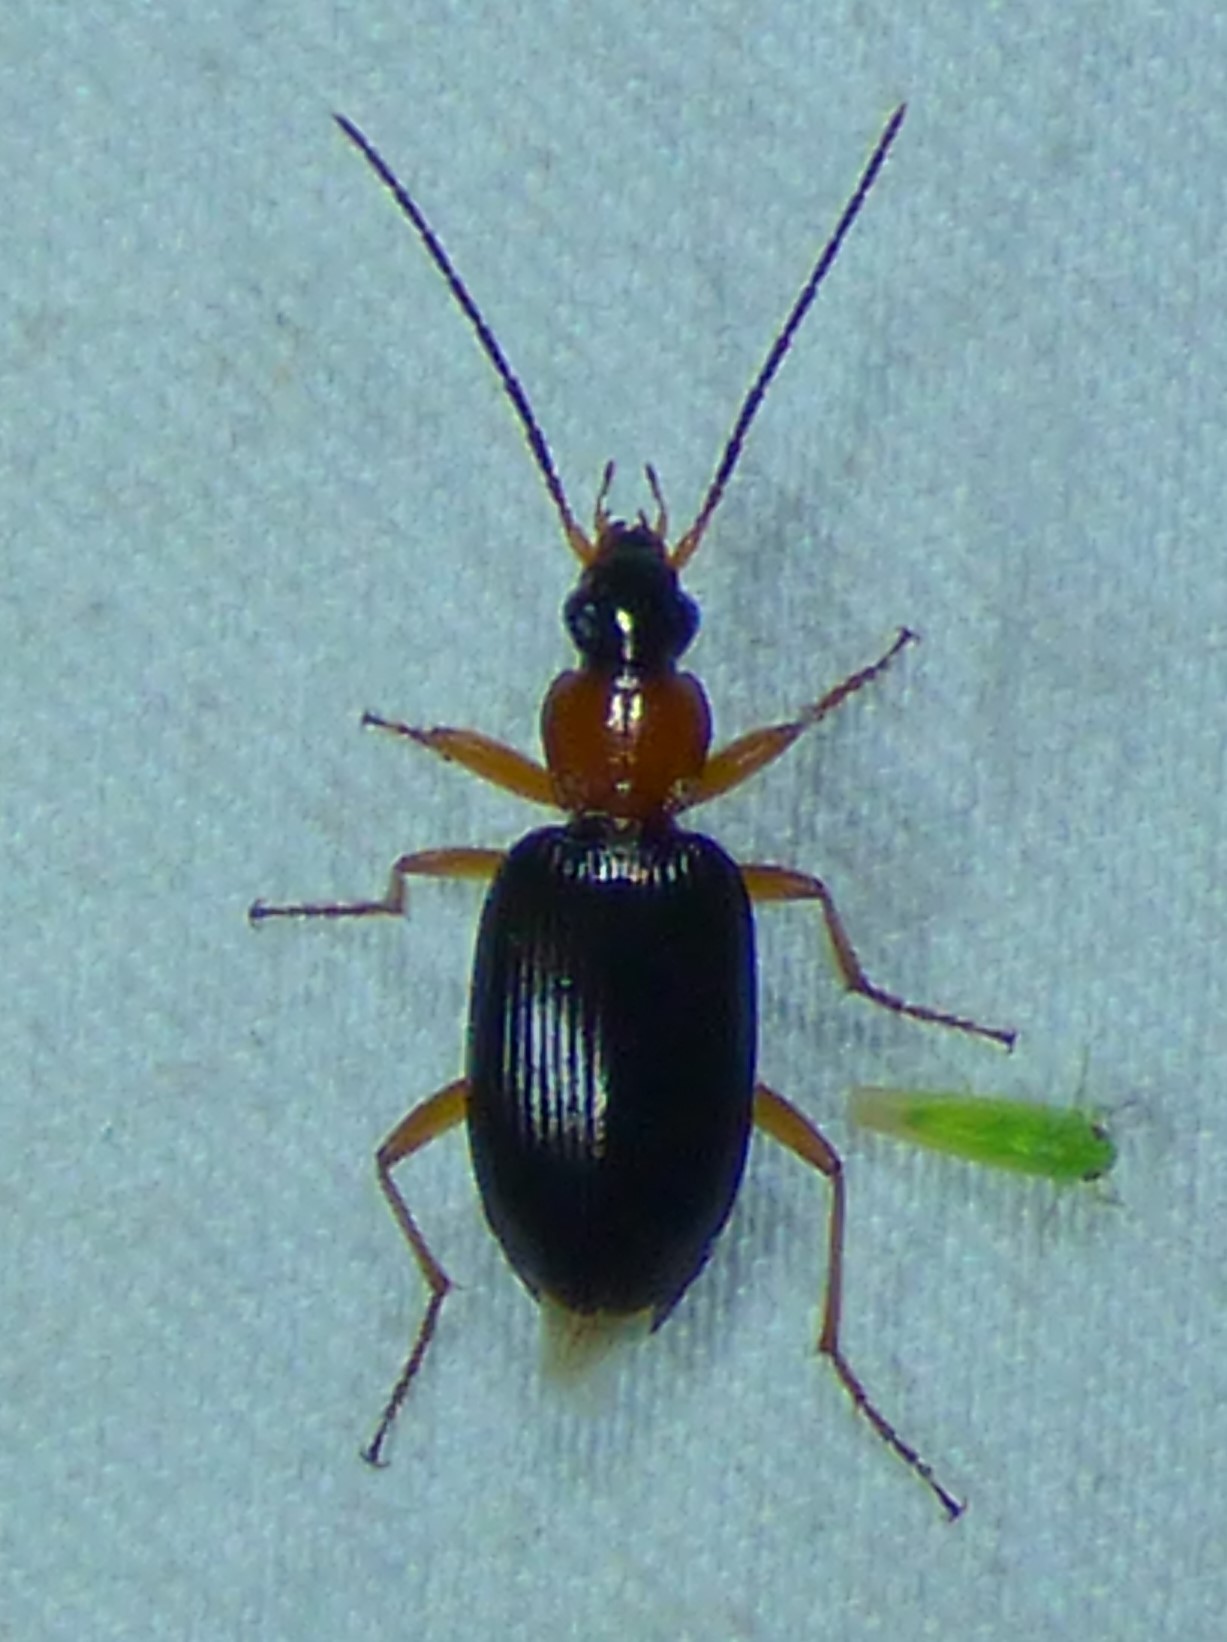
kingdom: Animalia
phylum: Arthropoda
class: Insecta
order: Coleoptera
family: Carabidae
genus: Agonum
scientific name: Agonum decorum
